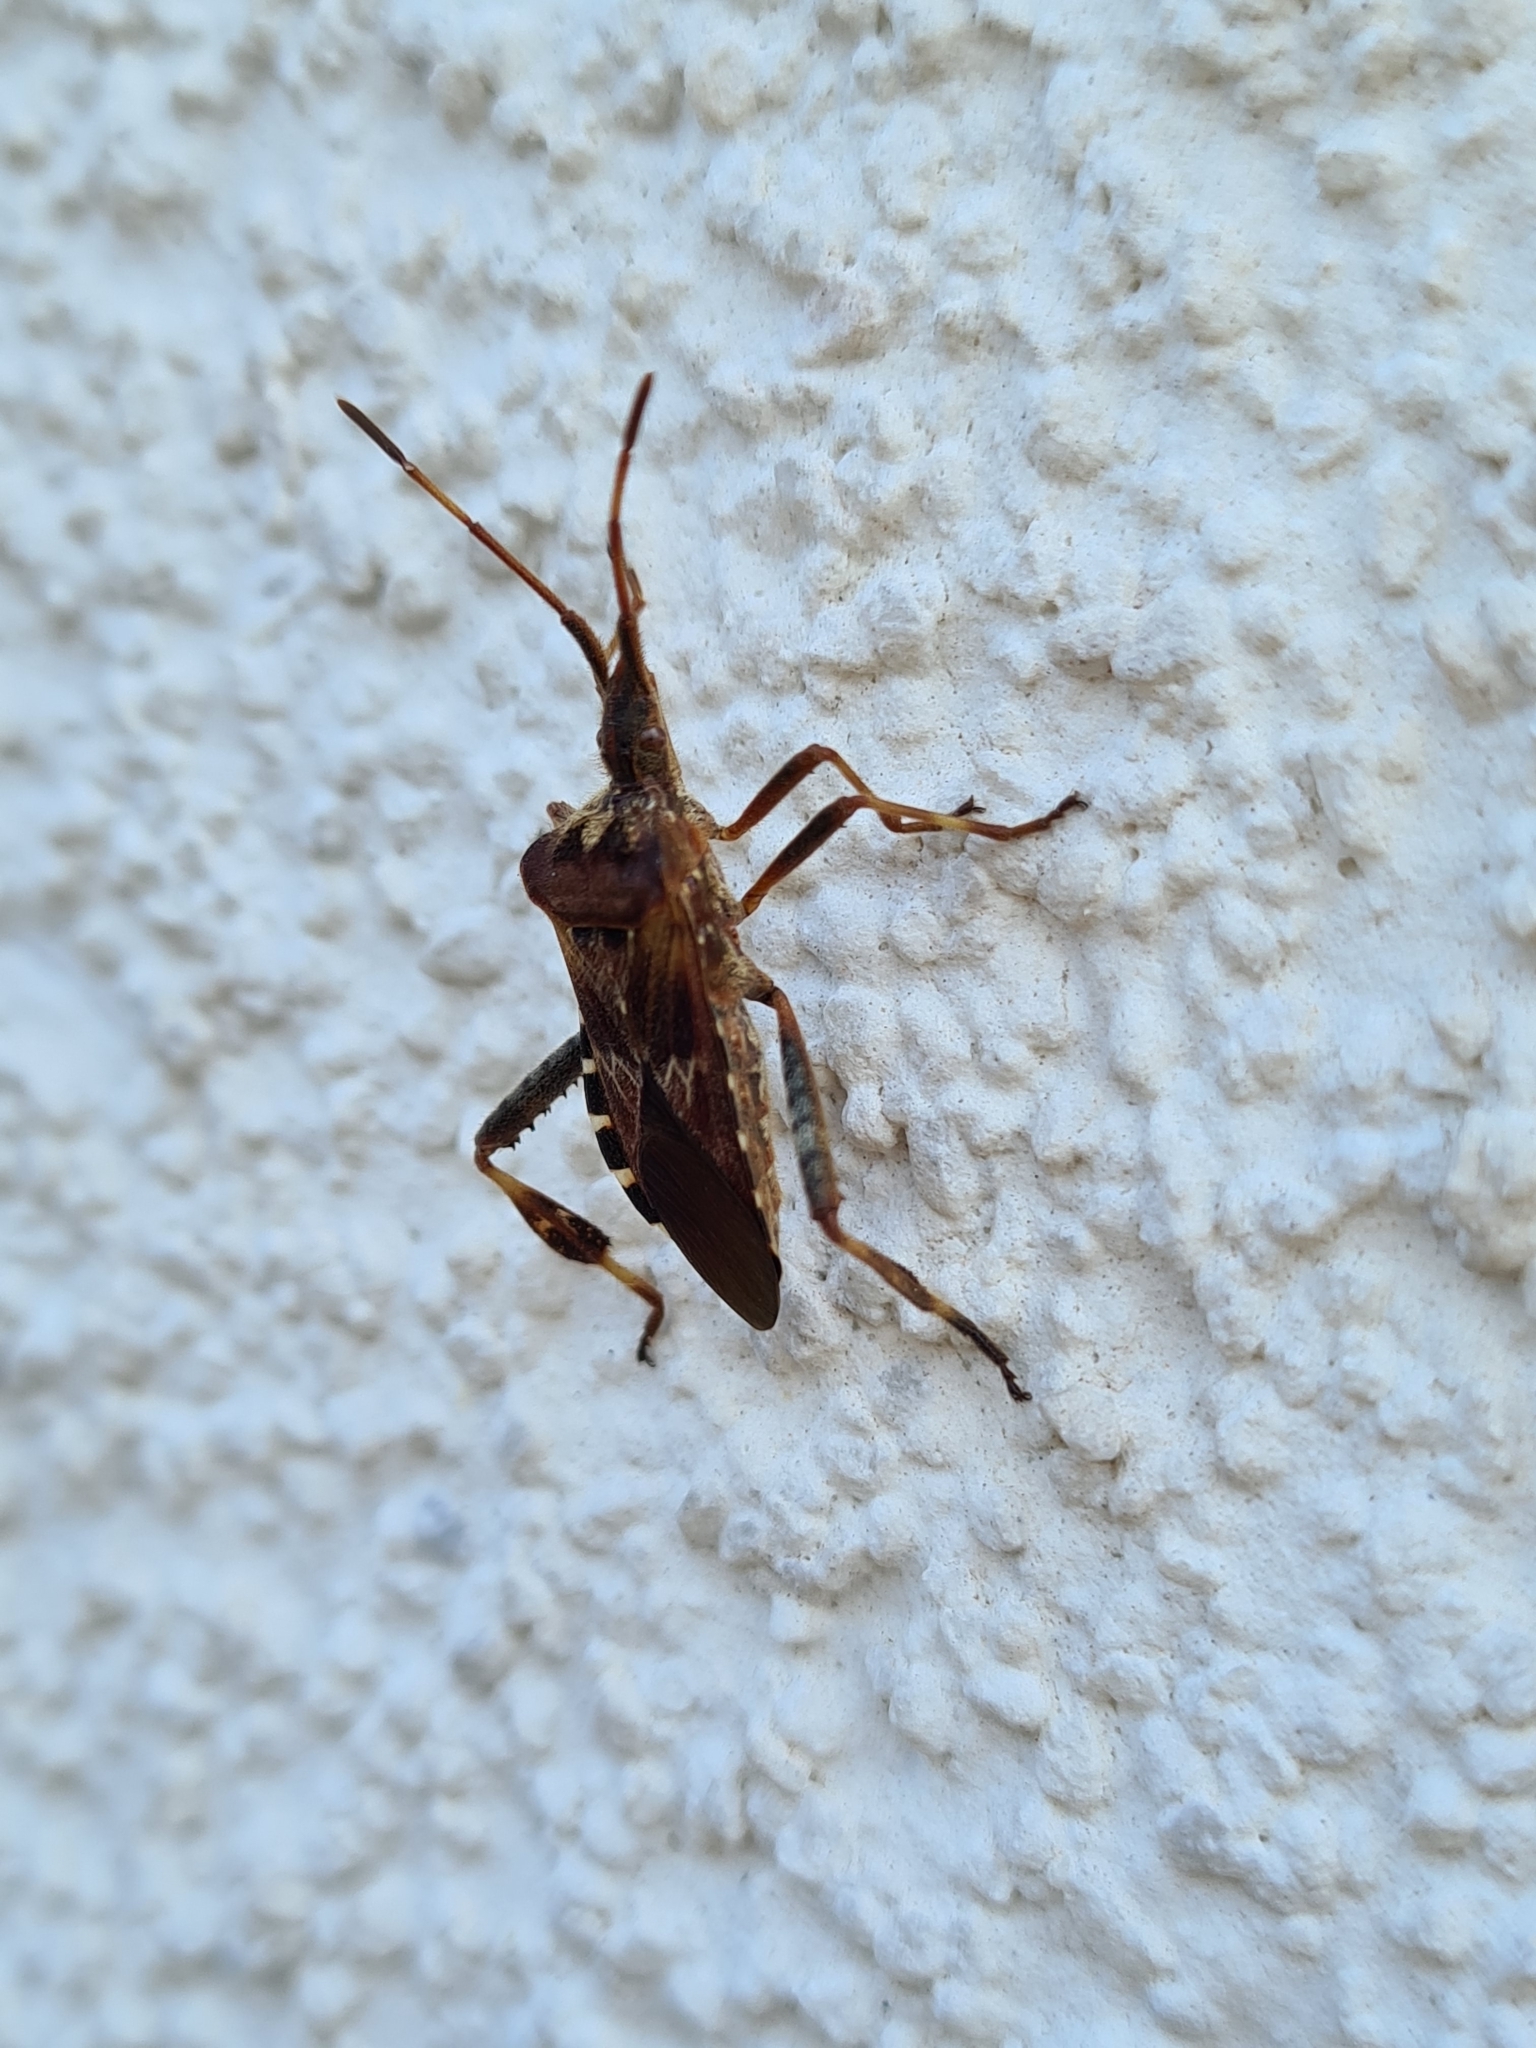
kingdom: Animalia
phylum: Arthropoda
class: Insecta
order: Hemiptera
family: Coreidae
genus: Leptoglossus
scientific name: Leptoglossus occidentalis
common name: Western conifer-seed bug
